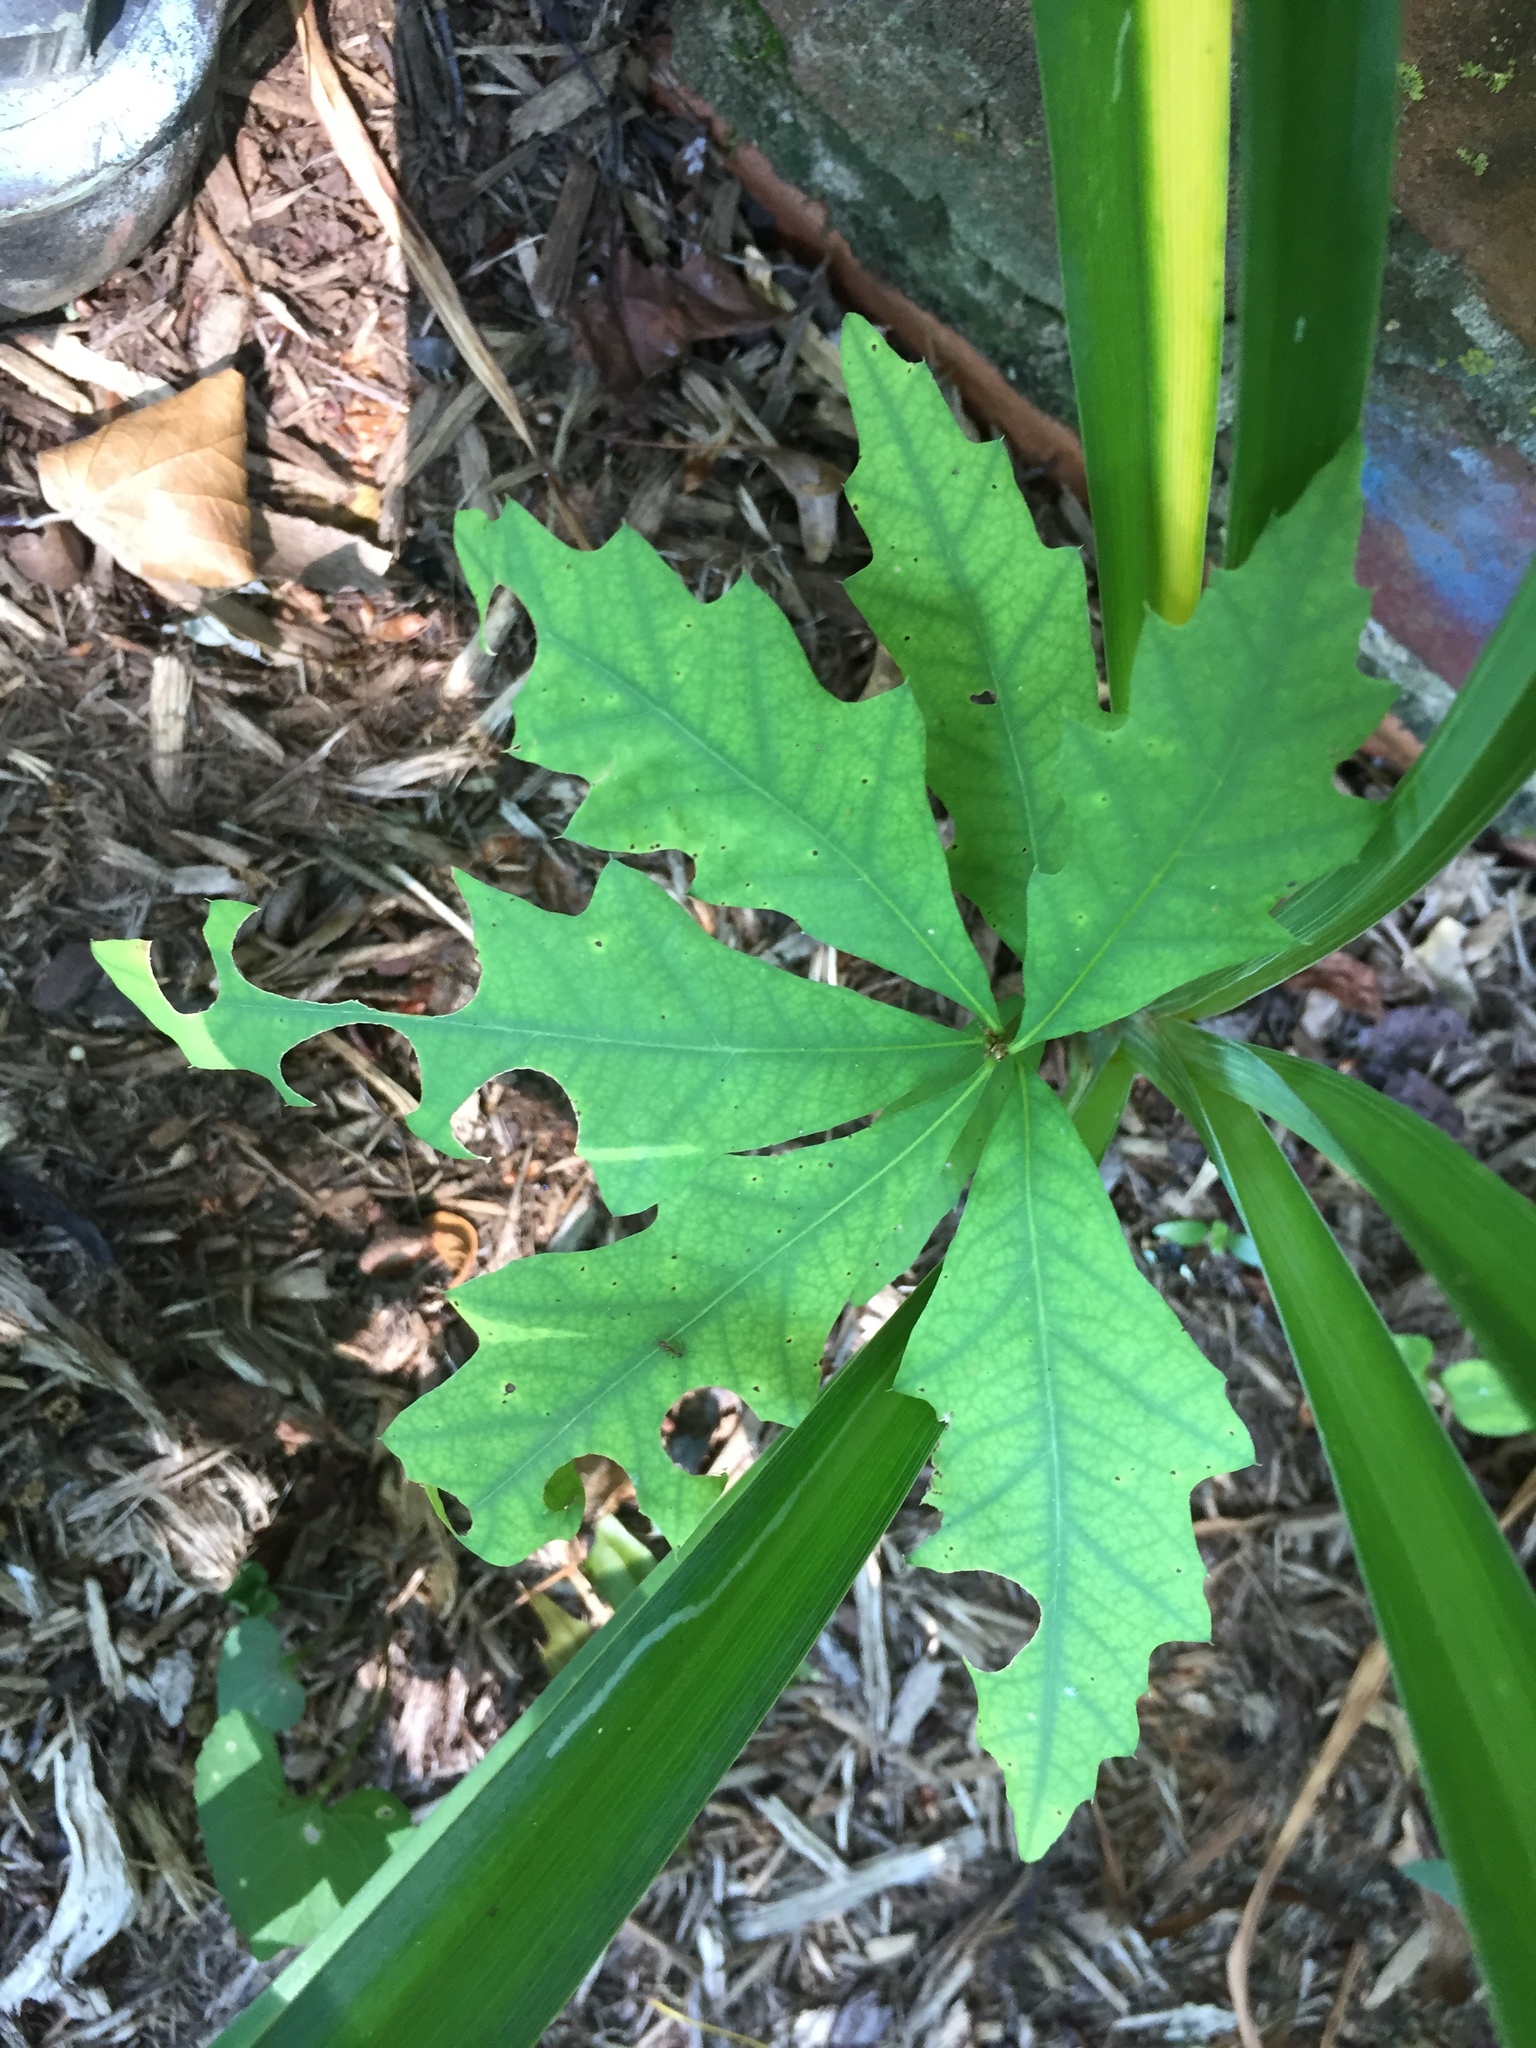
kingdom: Plantae
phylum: Tracheophyta
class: Magnoliopsida
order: Fagales
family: Fagaceae
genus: Quercus
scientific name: Quercus palustris
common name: Pin oak
